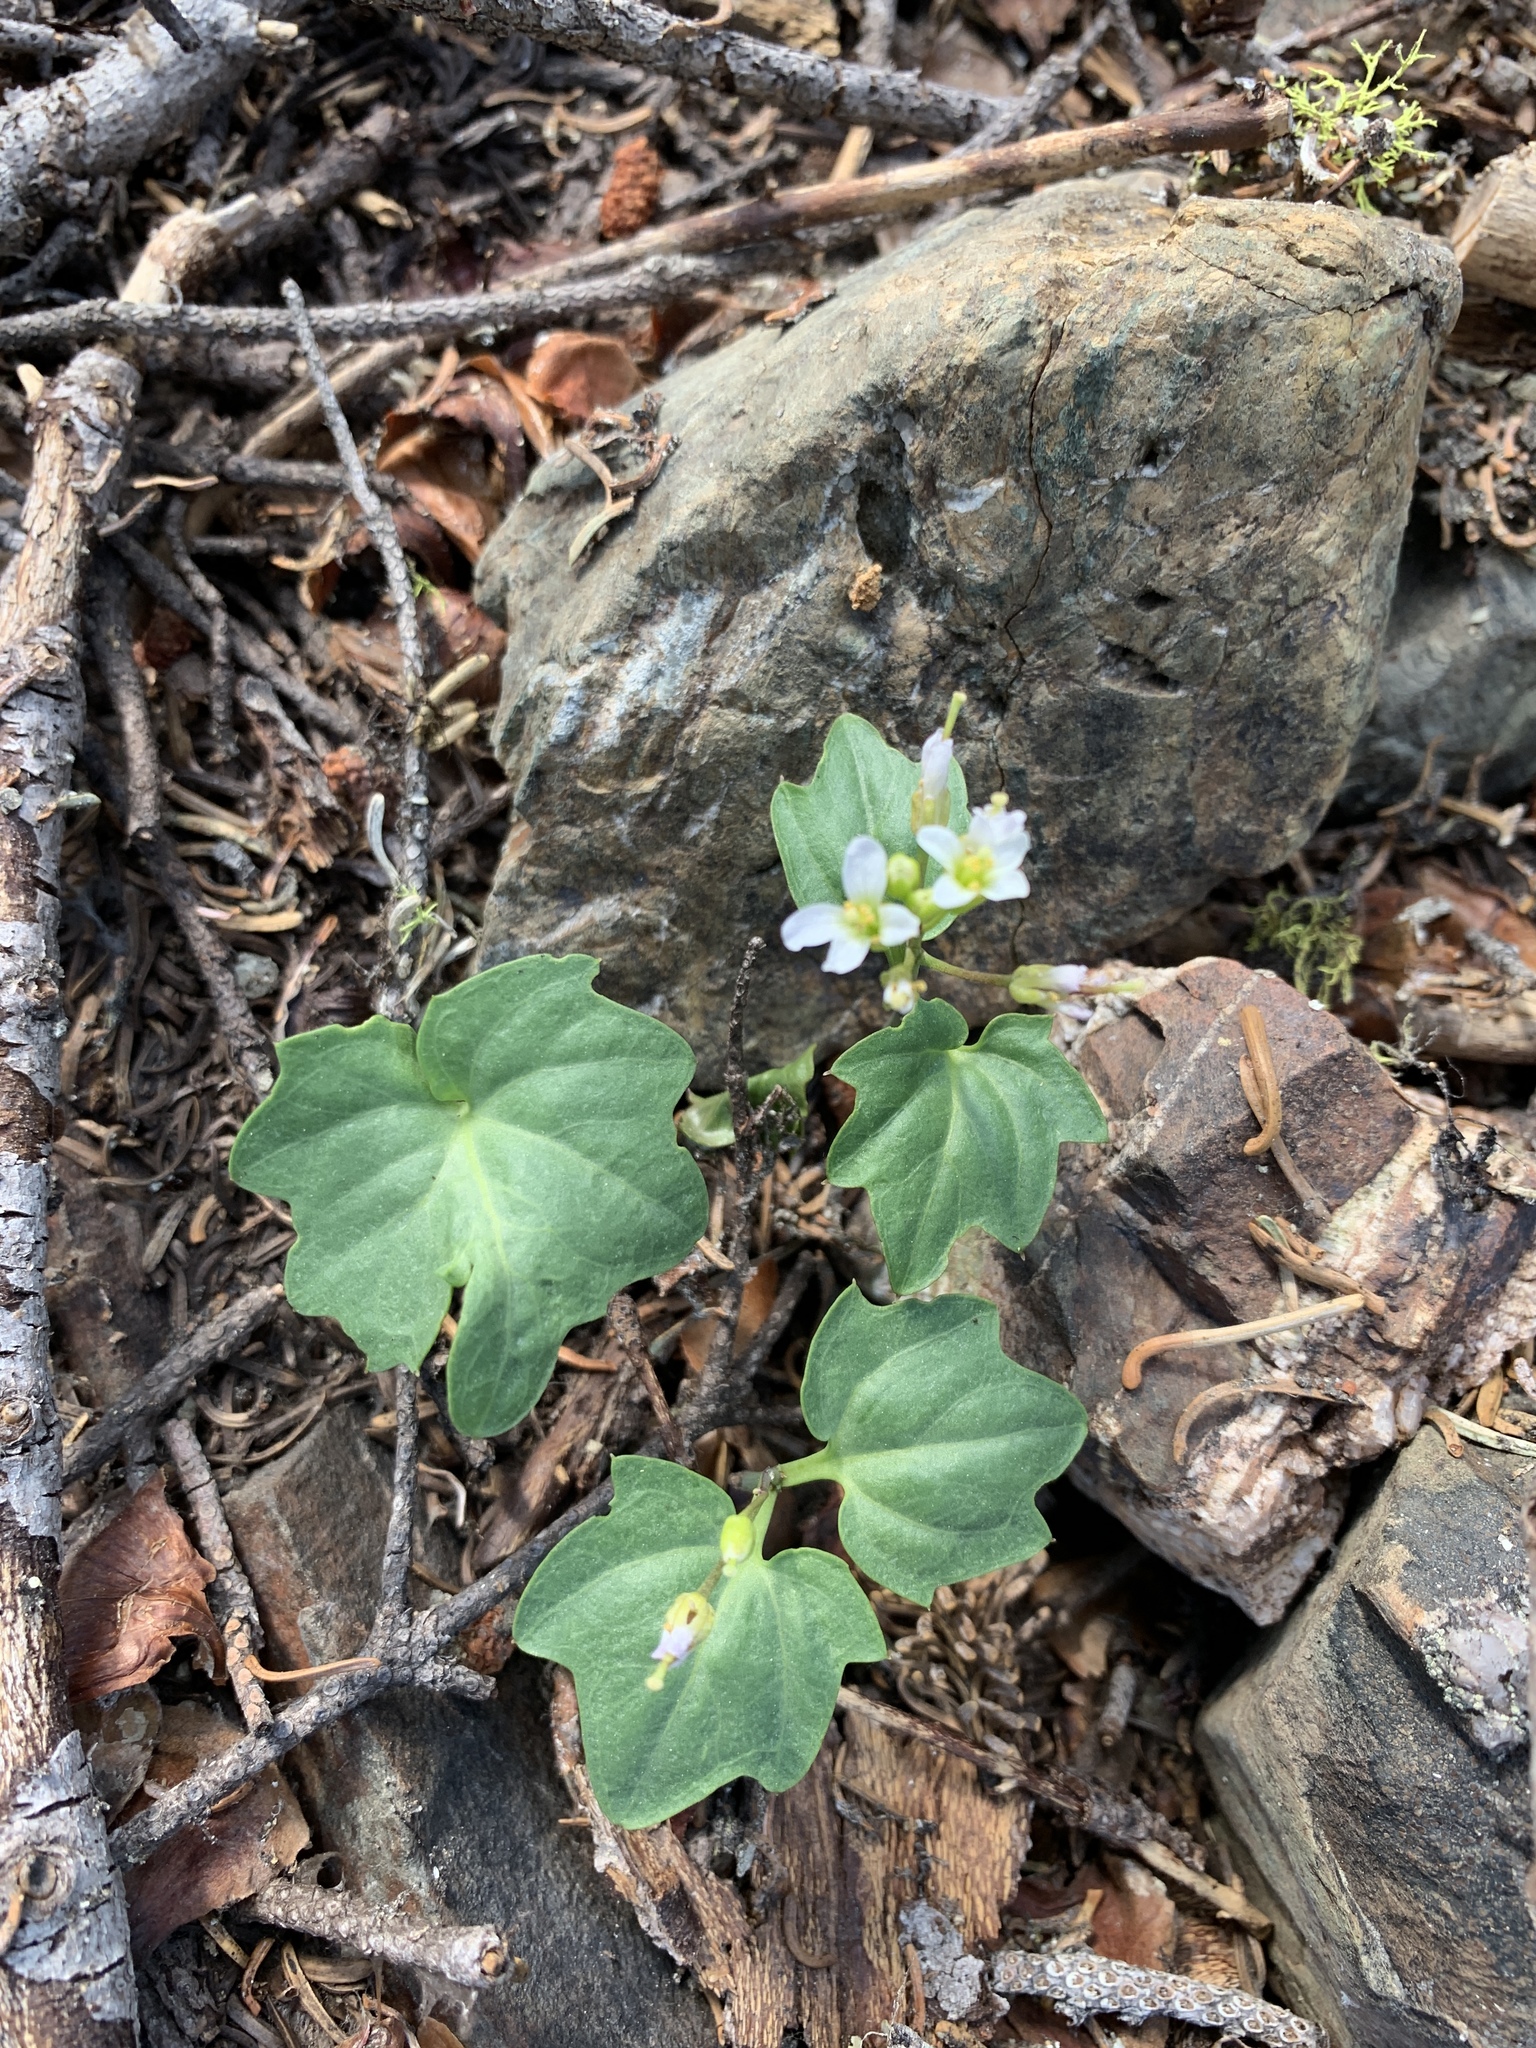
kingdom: Plantae
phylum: Tracheophyta
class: Magnoliopsida
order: Brassicales
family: Brassicaceae
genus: Cardamine
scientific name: Cardamine pachystigma
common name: Rock toothwort
